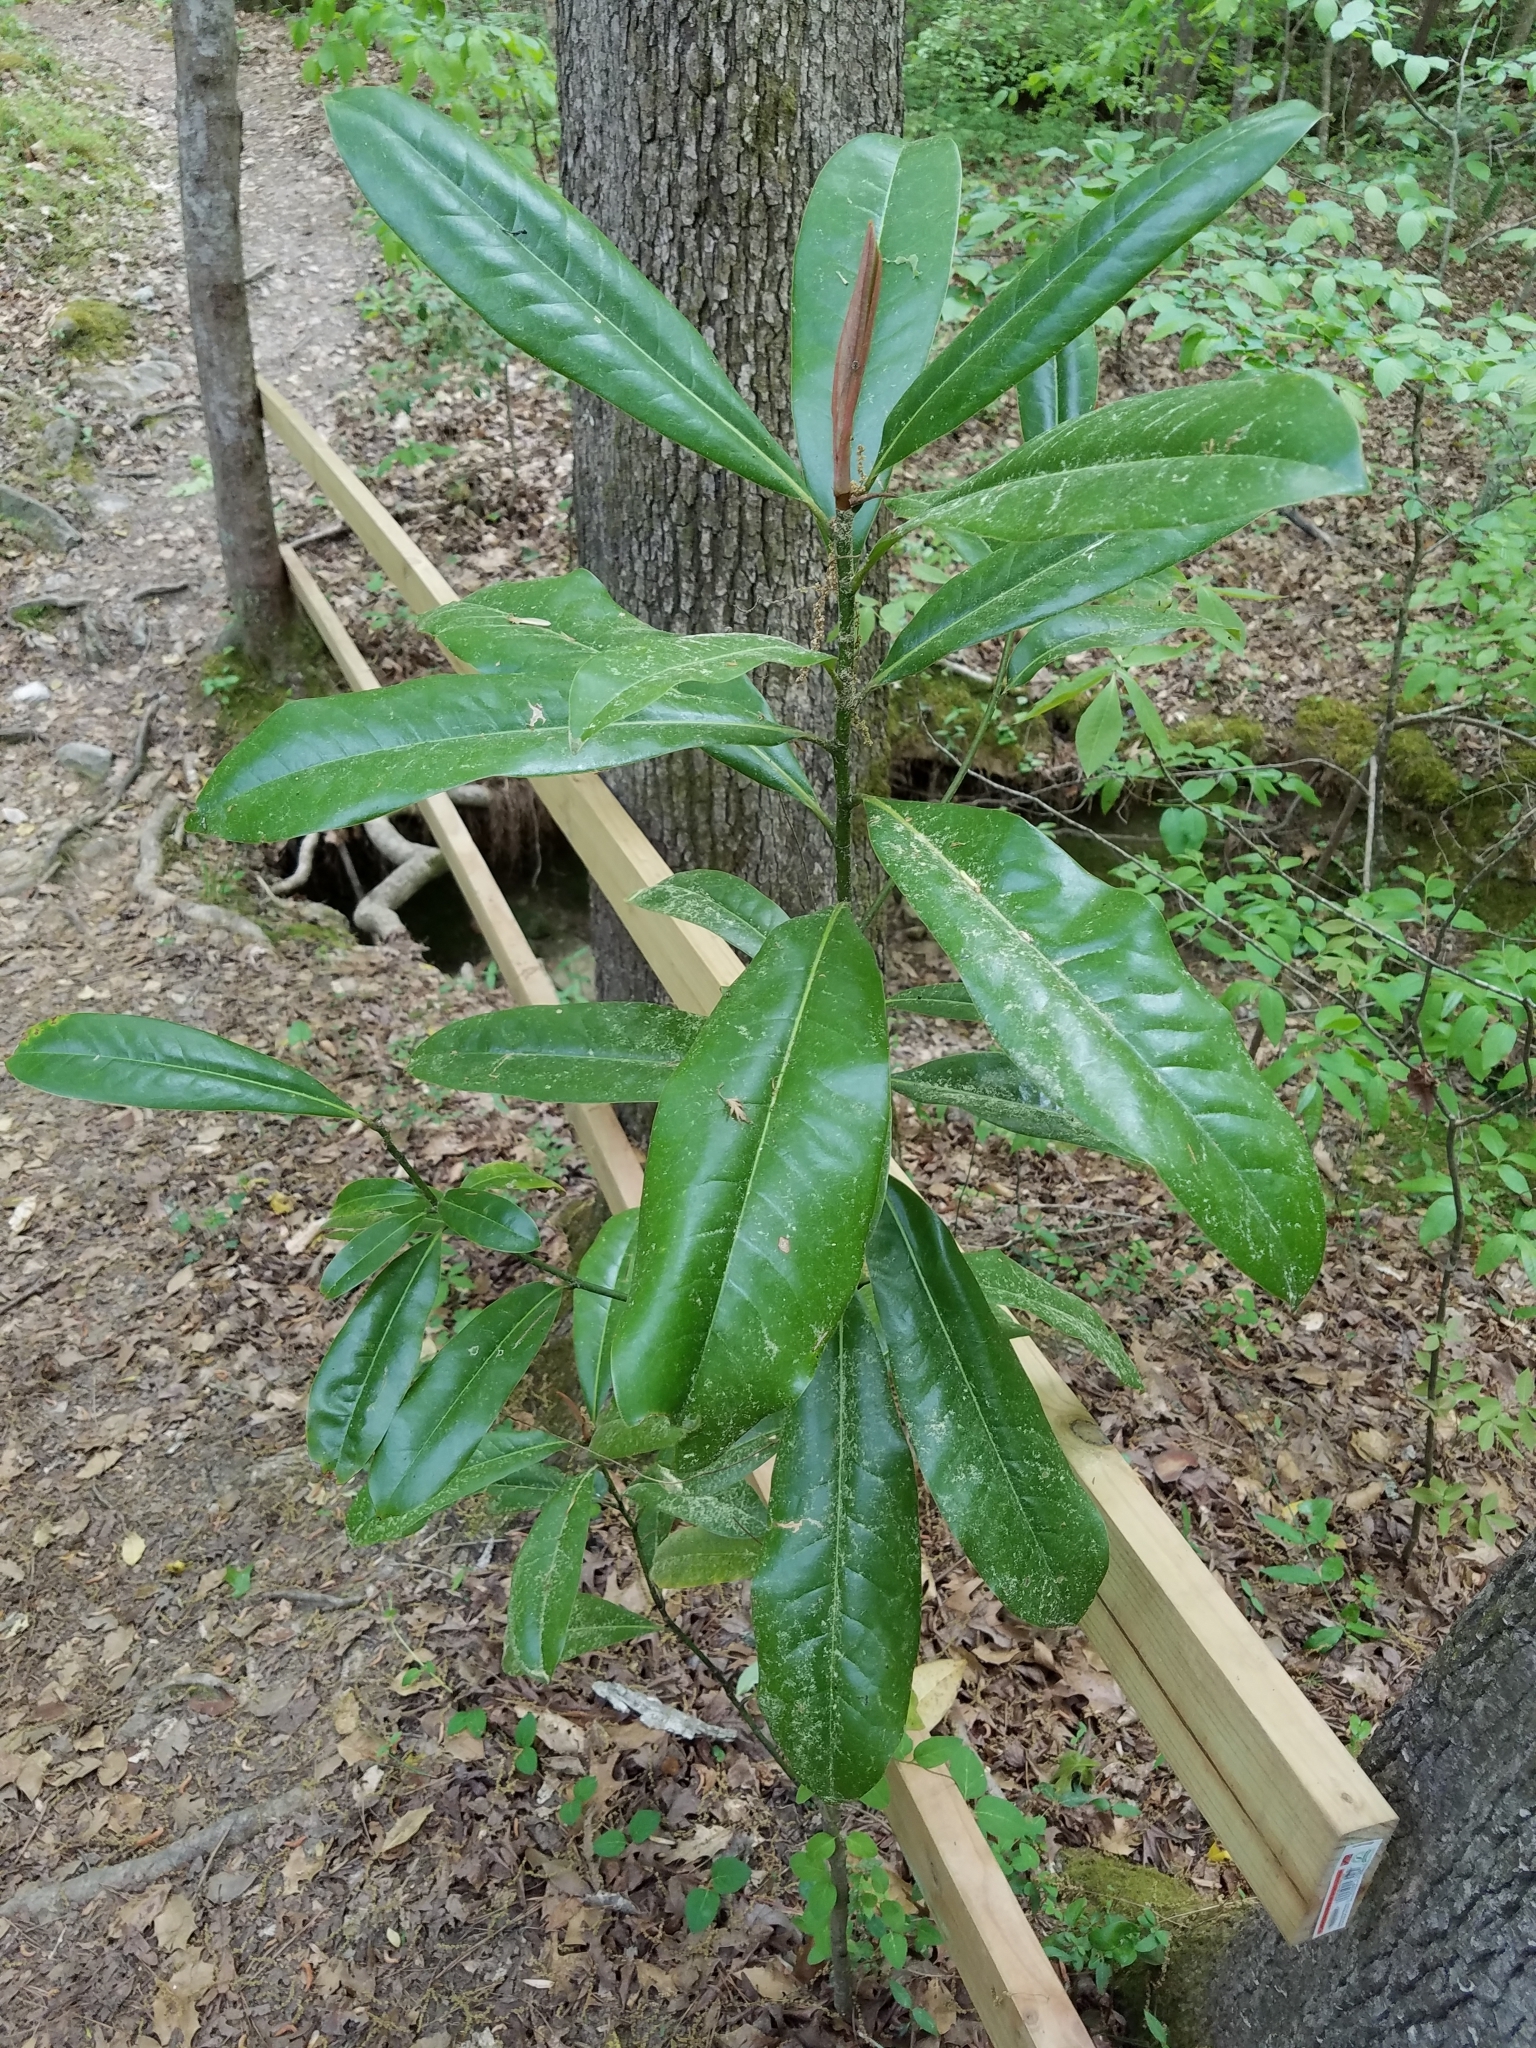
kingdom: Plantae
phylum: Tracheophyta
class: Magnoliopsida
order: Magnoliales
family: Magnoliaceae
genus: Magnolia
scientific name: Magnolia grandiflora
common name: Southern magnolia
